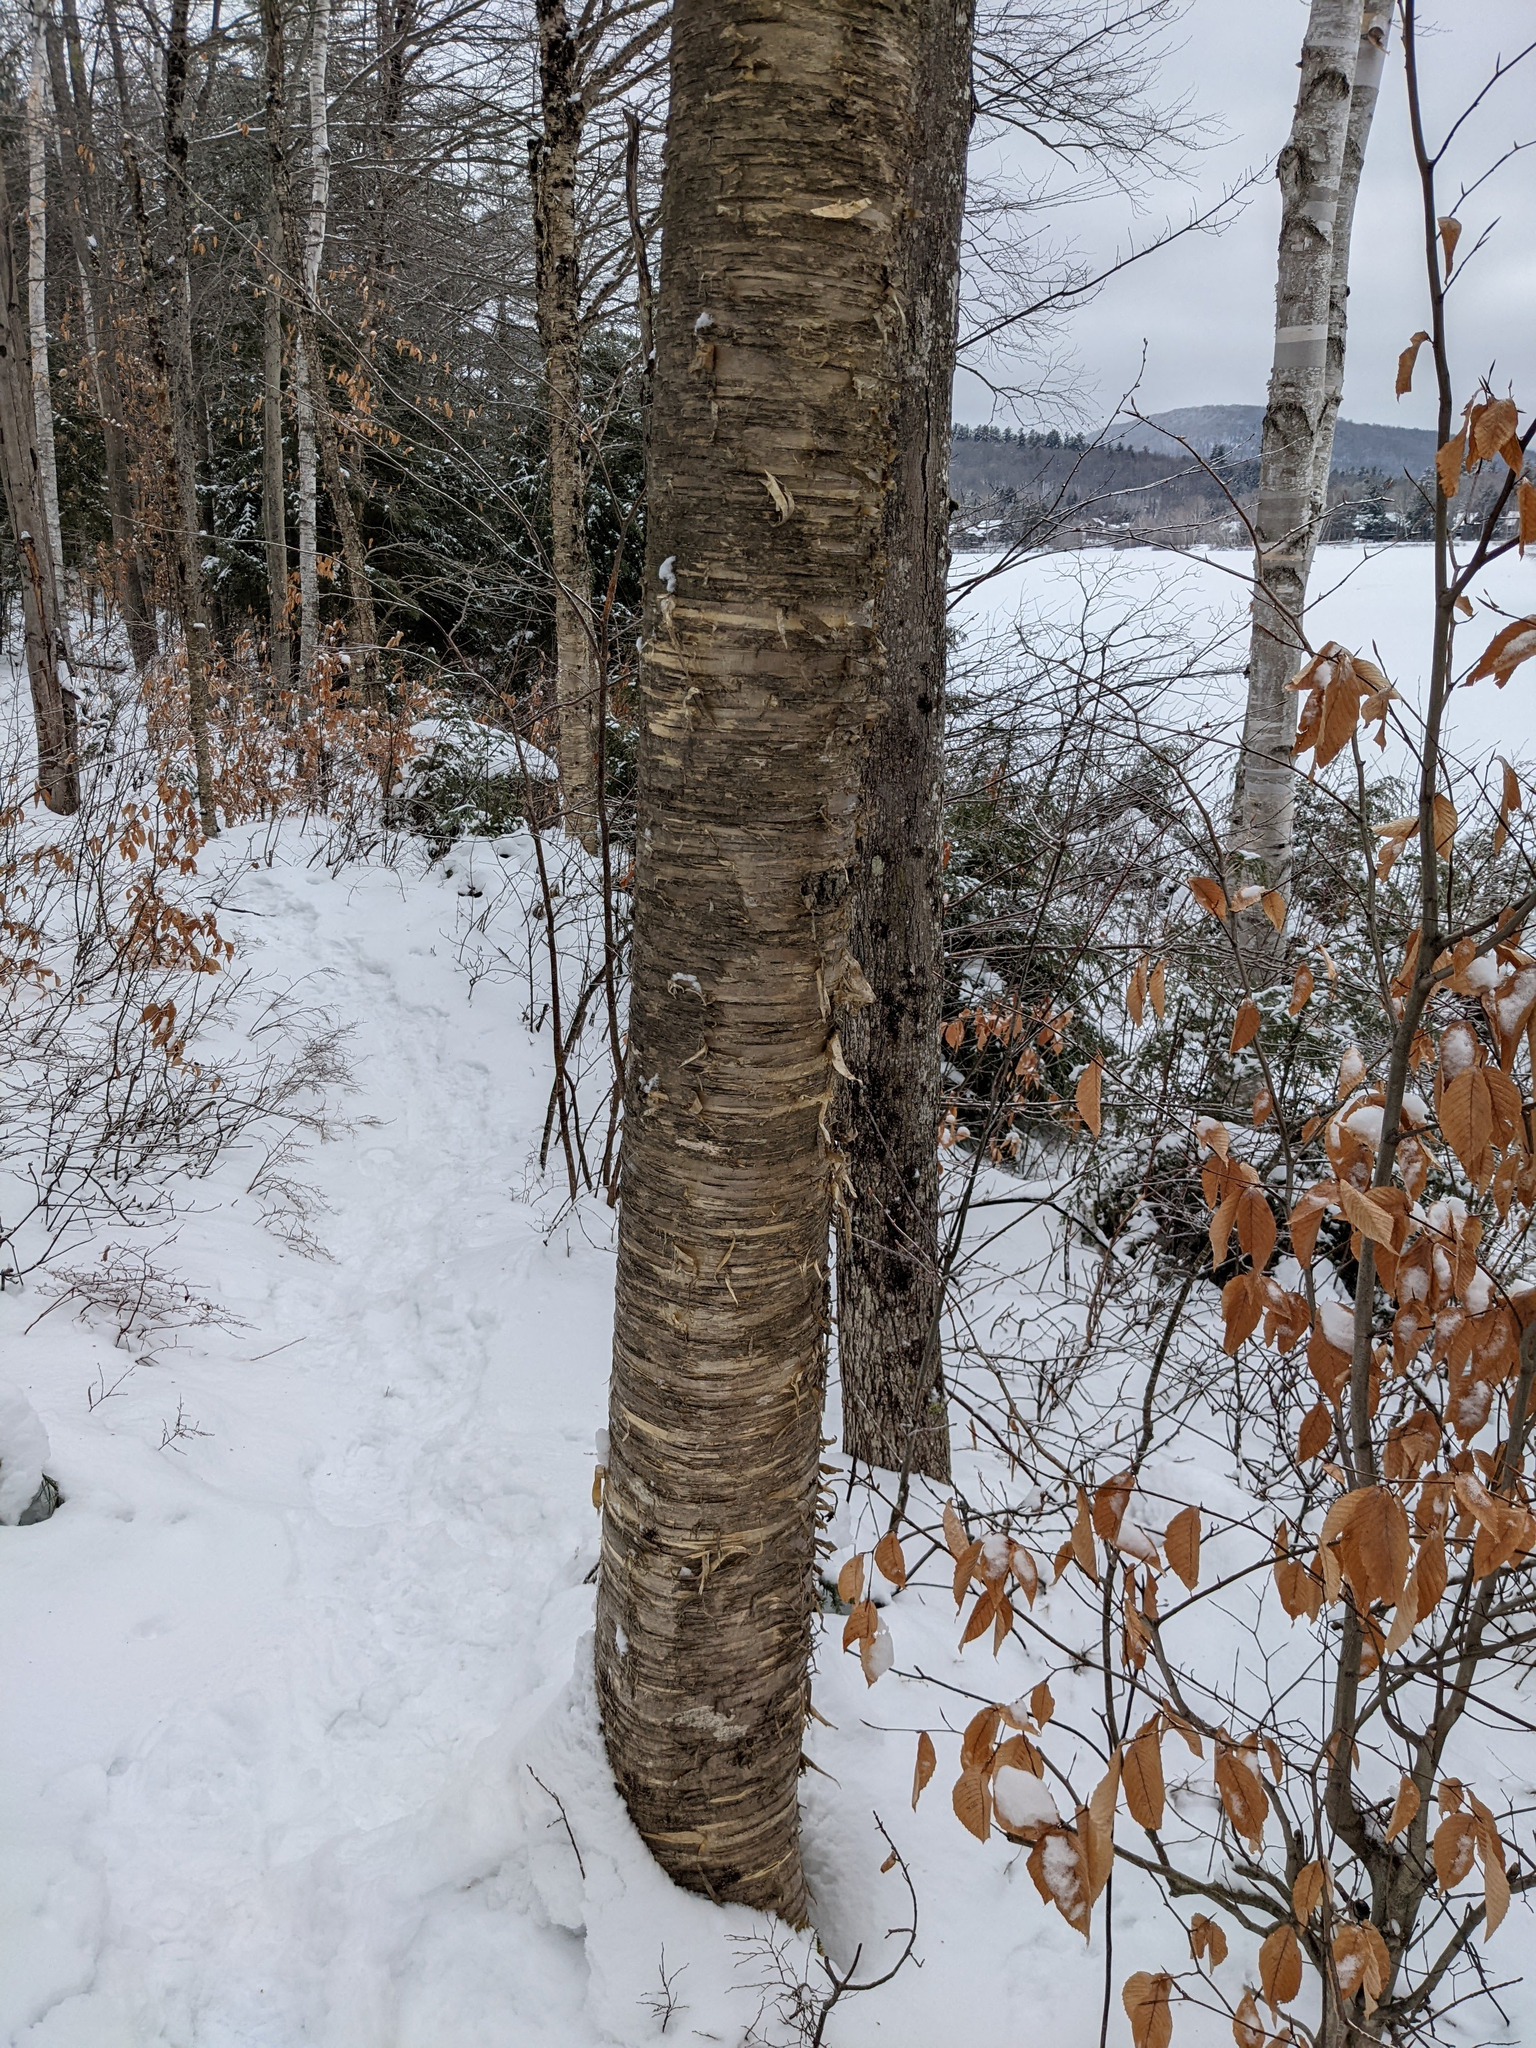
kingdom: Plantae
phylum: Tracheophyta
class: Magnoliopsida
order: Fagales
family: Betulaceae
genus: Betula
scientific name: Betula alleghaniensis
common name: Yellow birch
